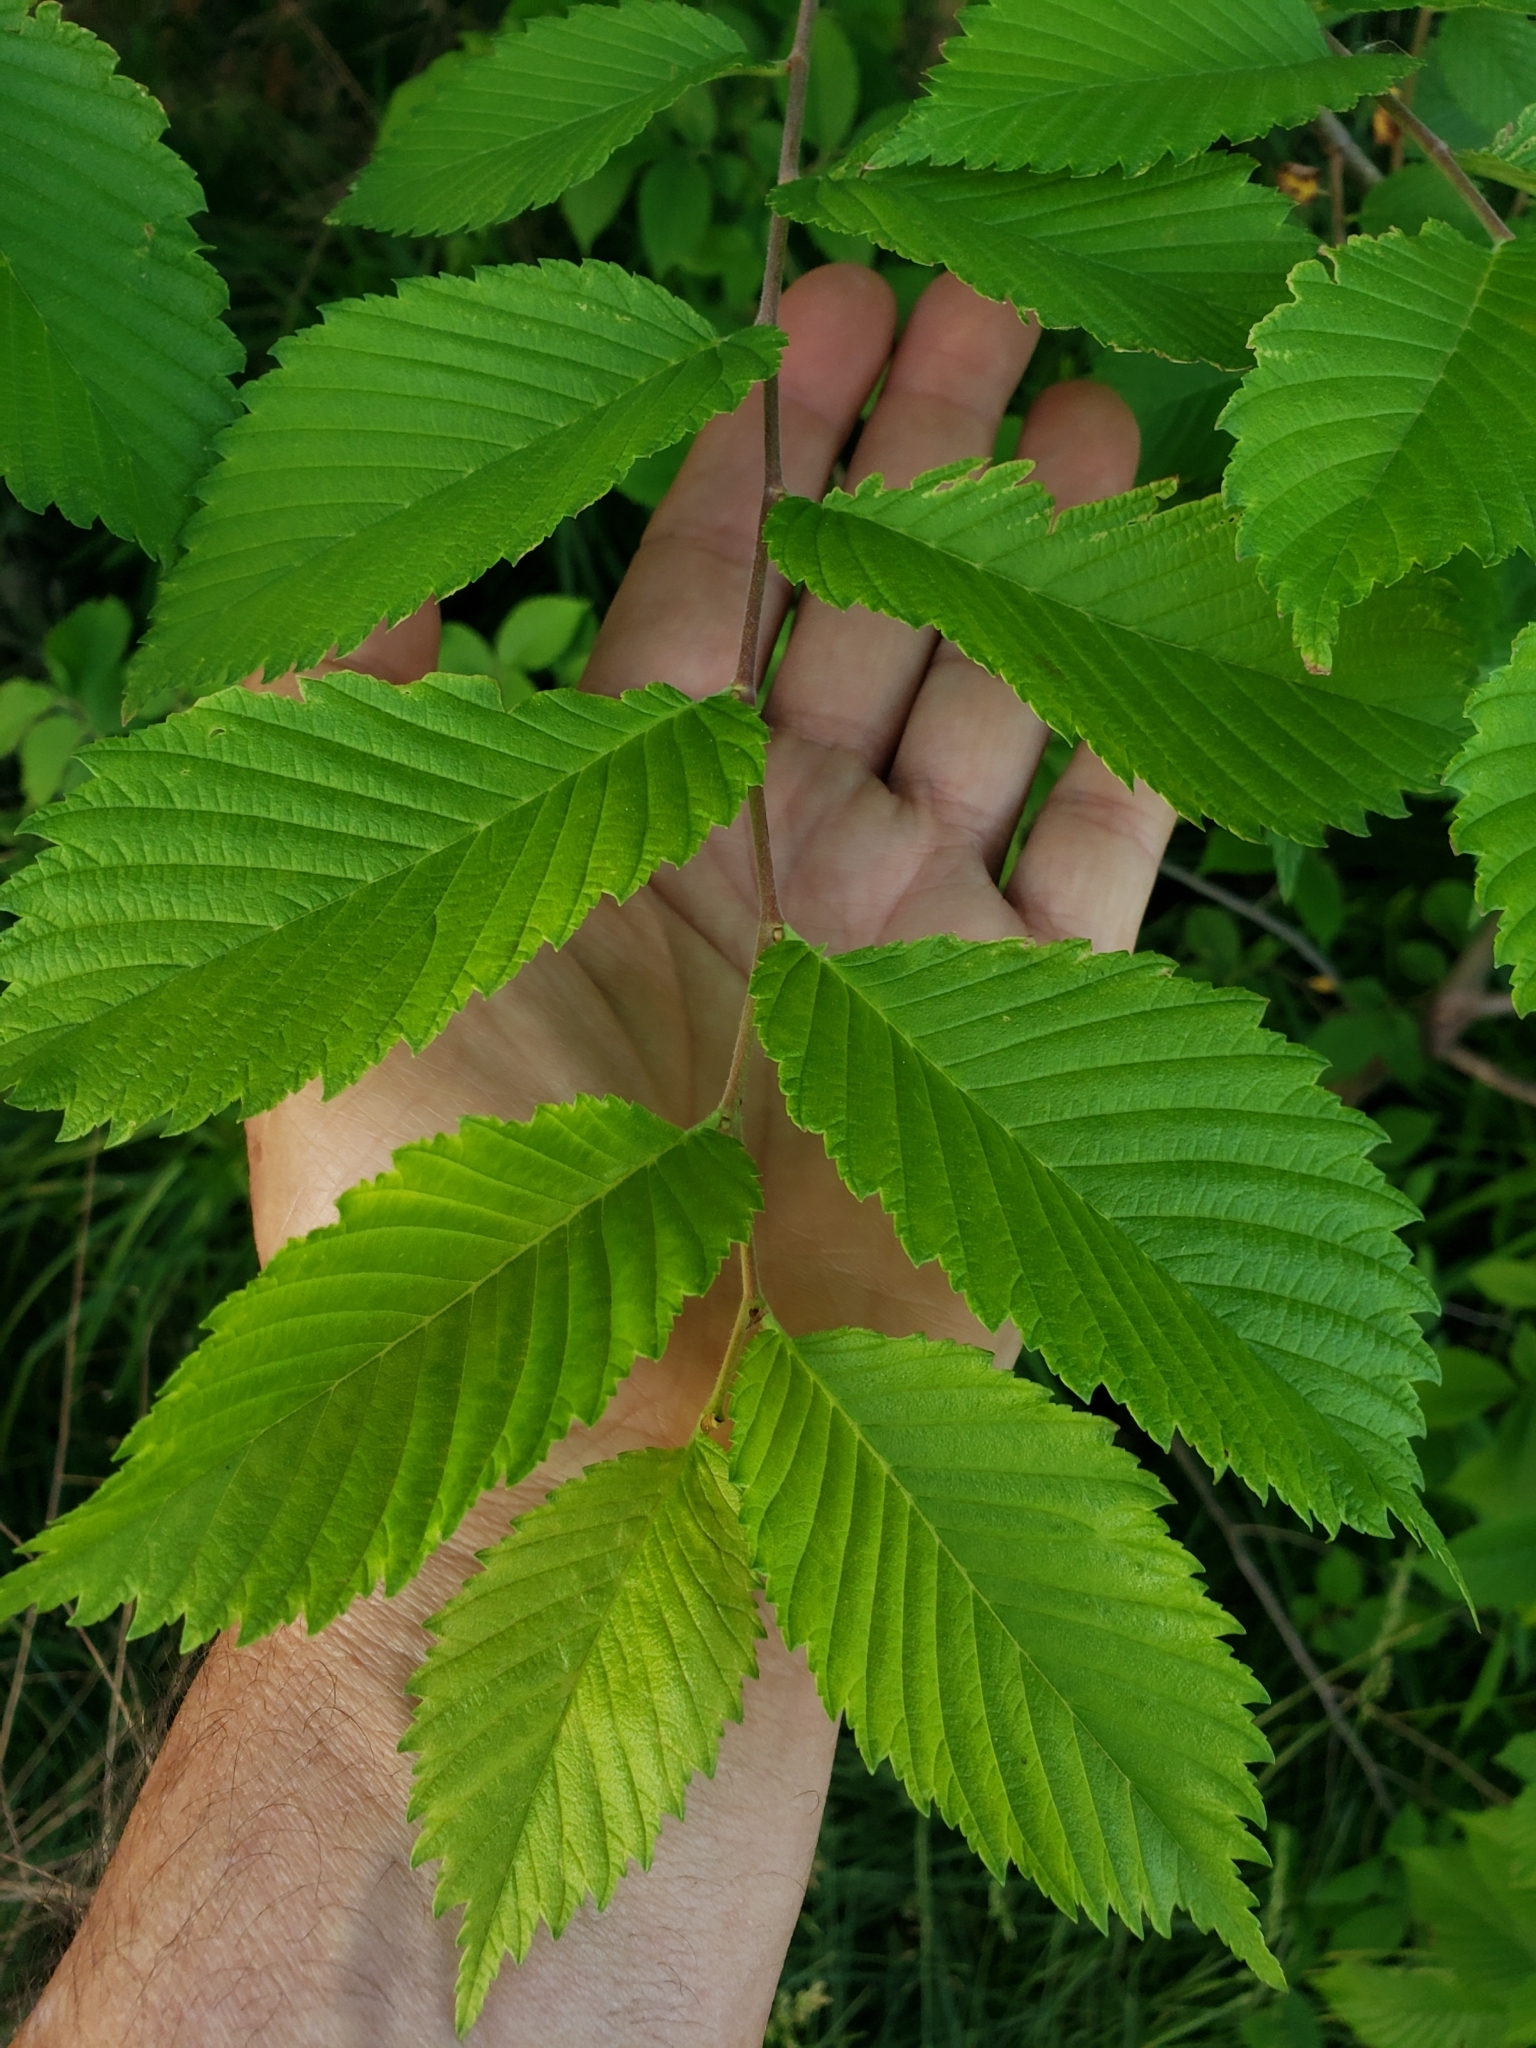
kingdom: Animalia
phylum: Arthropoda
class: Insecta
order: Hemiptera
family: Aphididae
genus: Eriosoma
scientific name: Eriosoma americanum
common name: Woolly elm aphid
